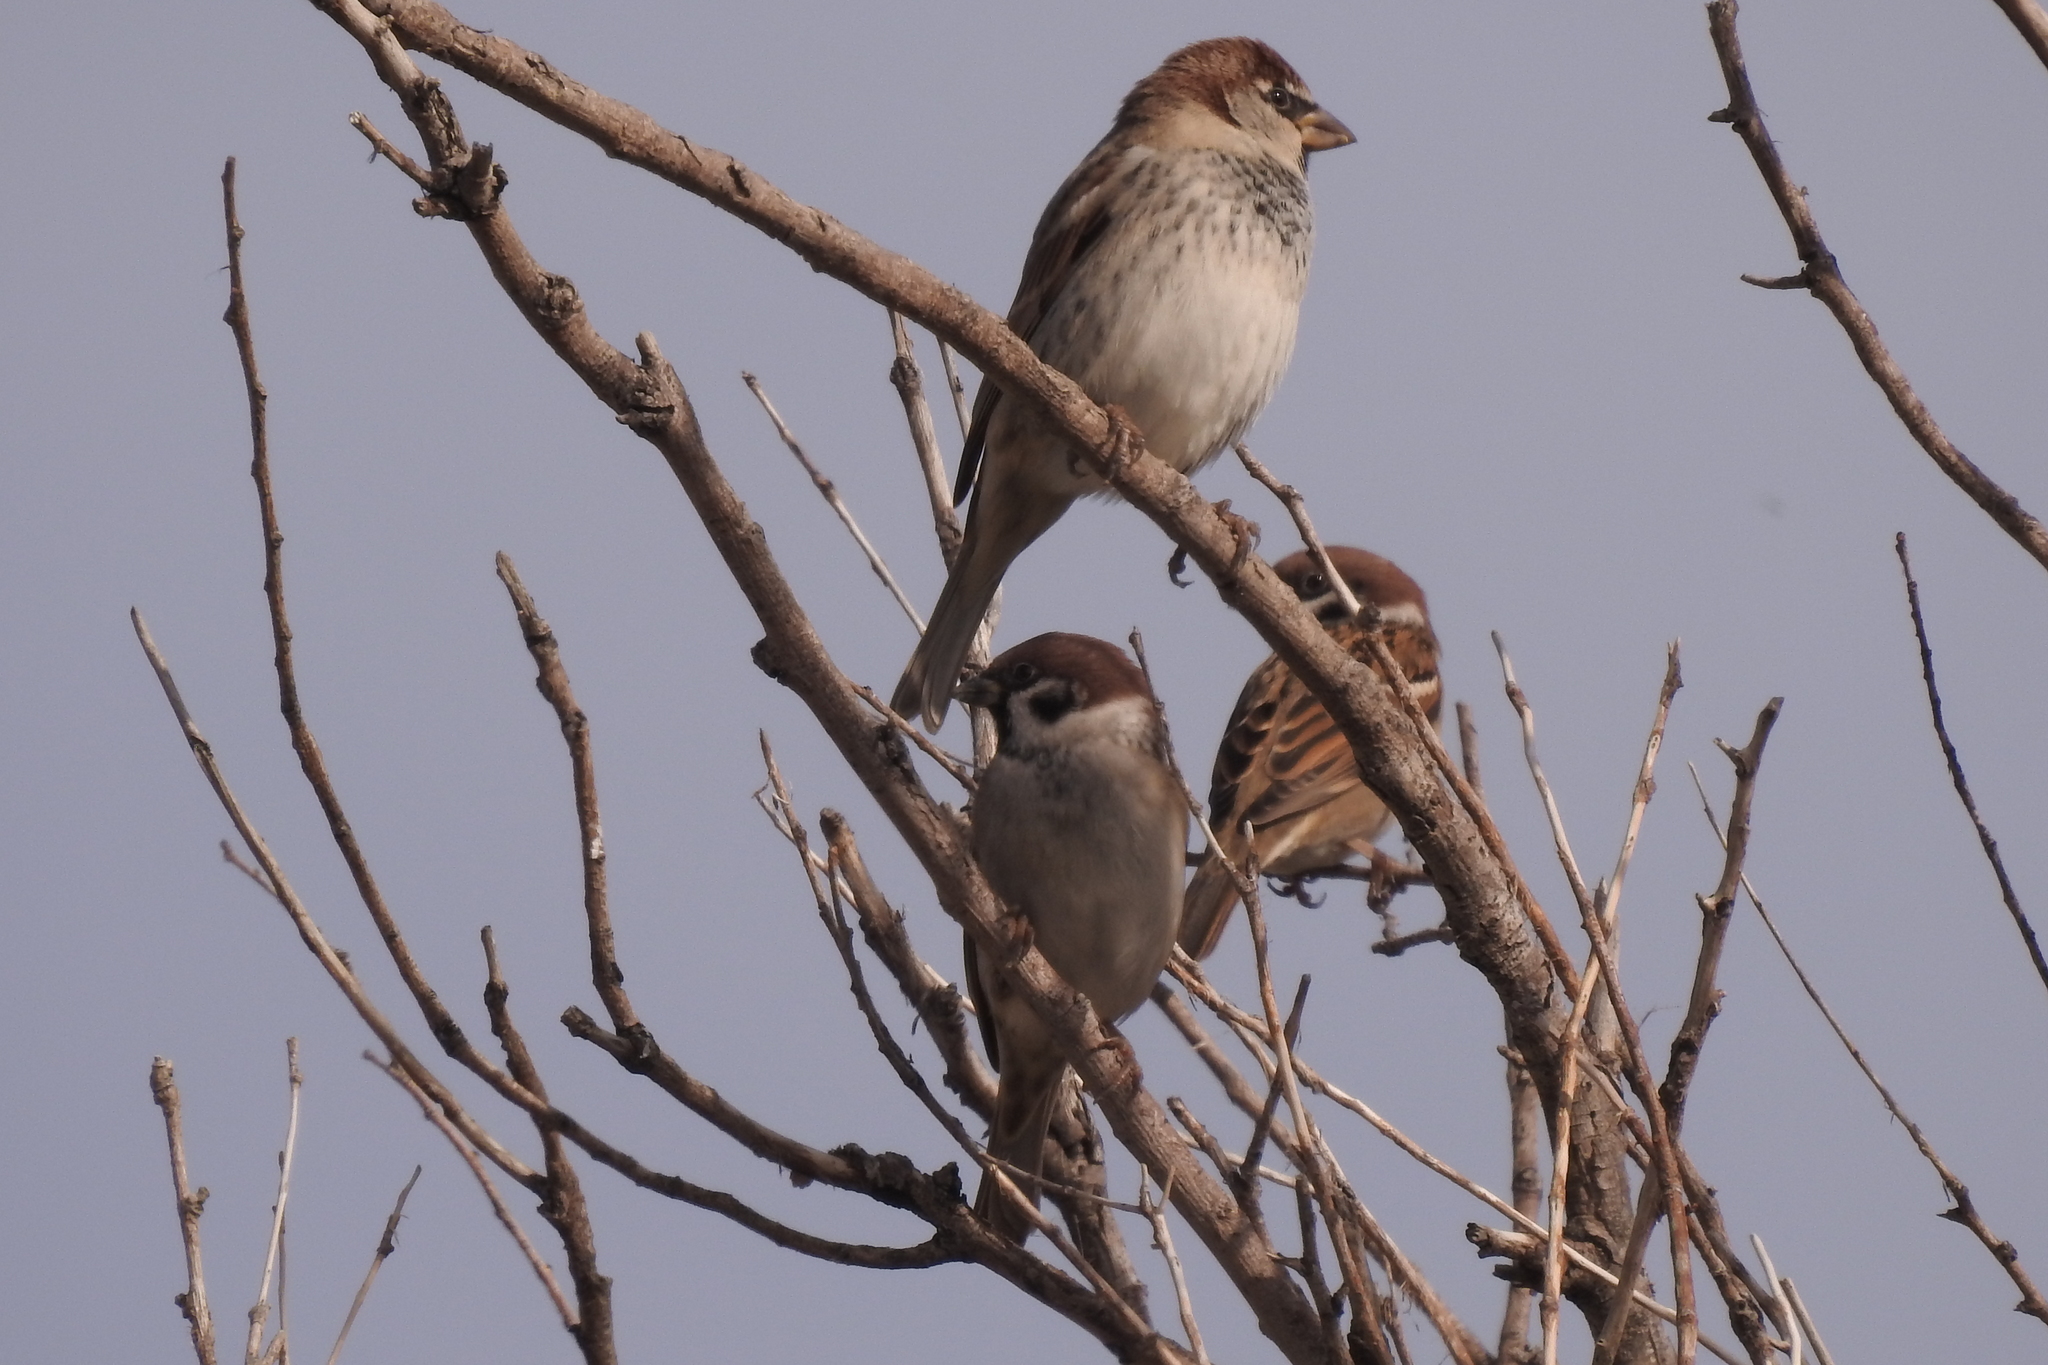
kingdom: Animalia
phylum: Chordata
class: Aves
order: Passeriformes
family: Passeridae
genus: Passer
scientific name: Passer montanus
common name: Eurasian tree sparrow
